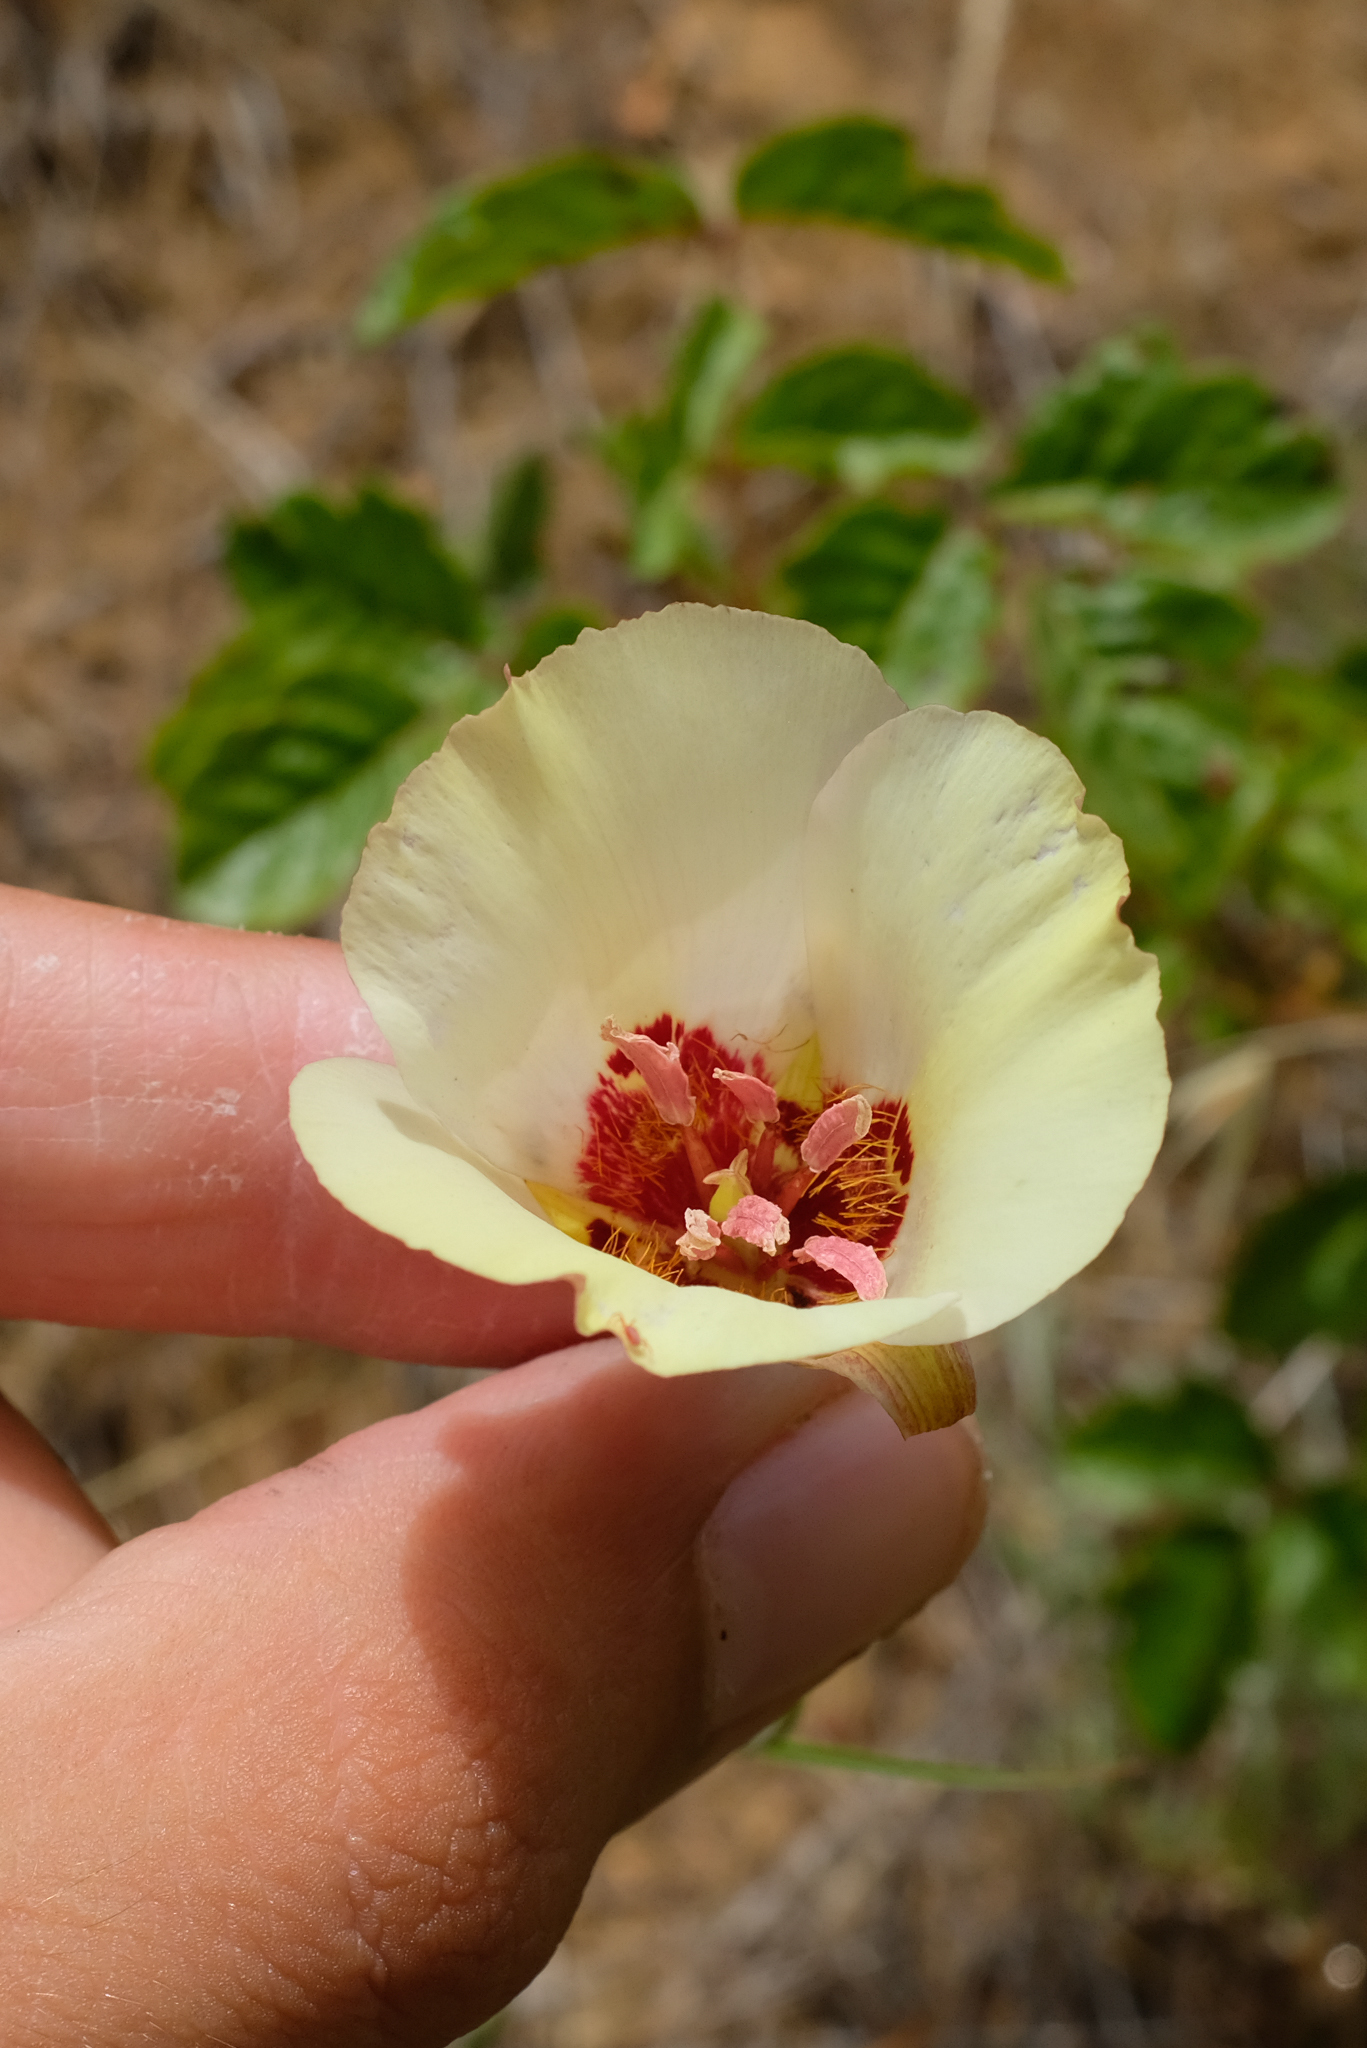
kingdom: Plantae
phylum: Tracheophyta
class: Liliopsida
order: Liliales
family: Liliaceae
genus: Calochortus
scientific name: Calochortus simulans
